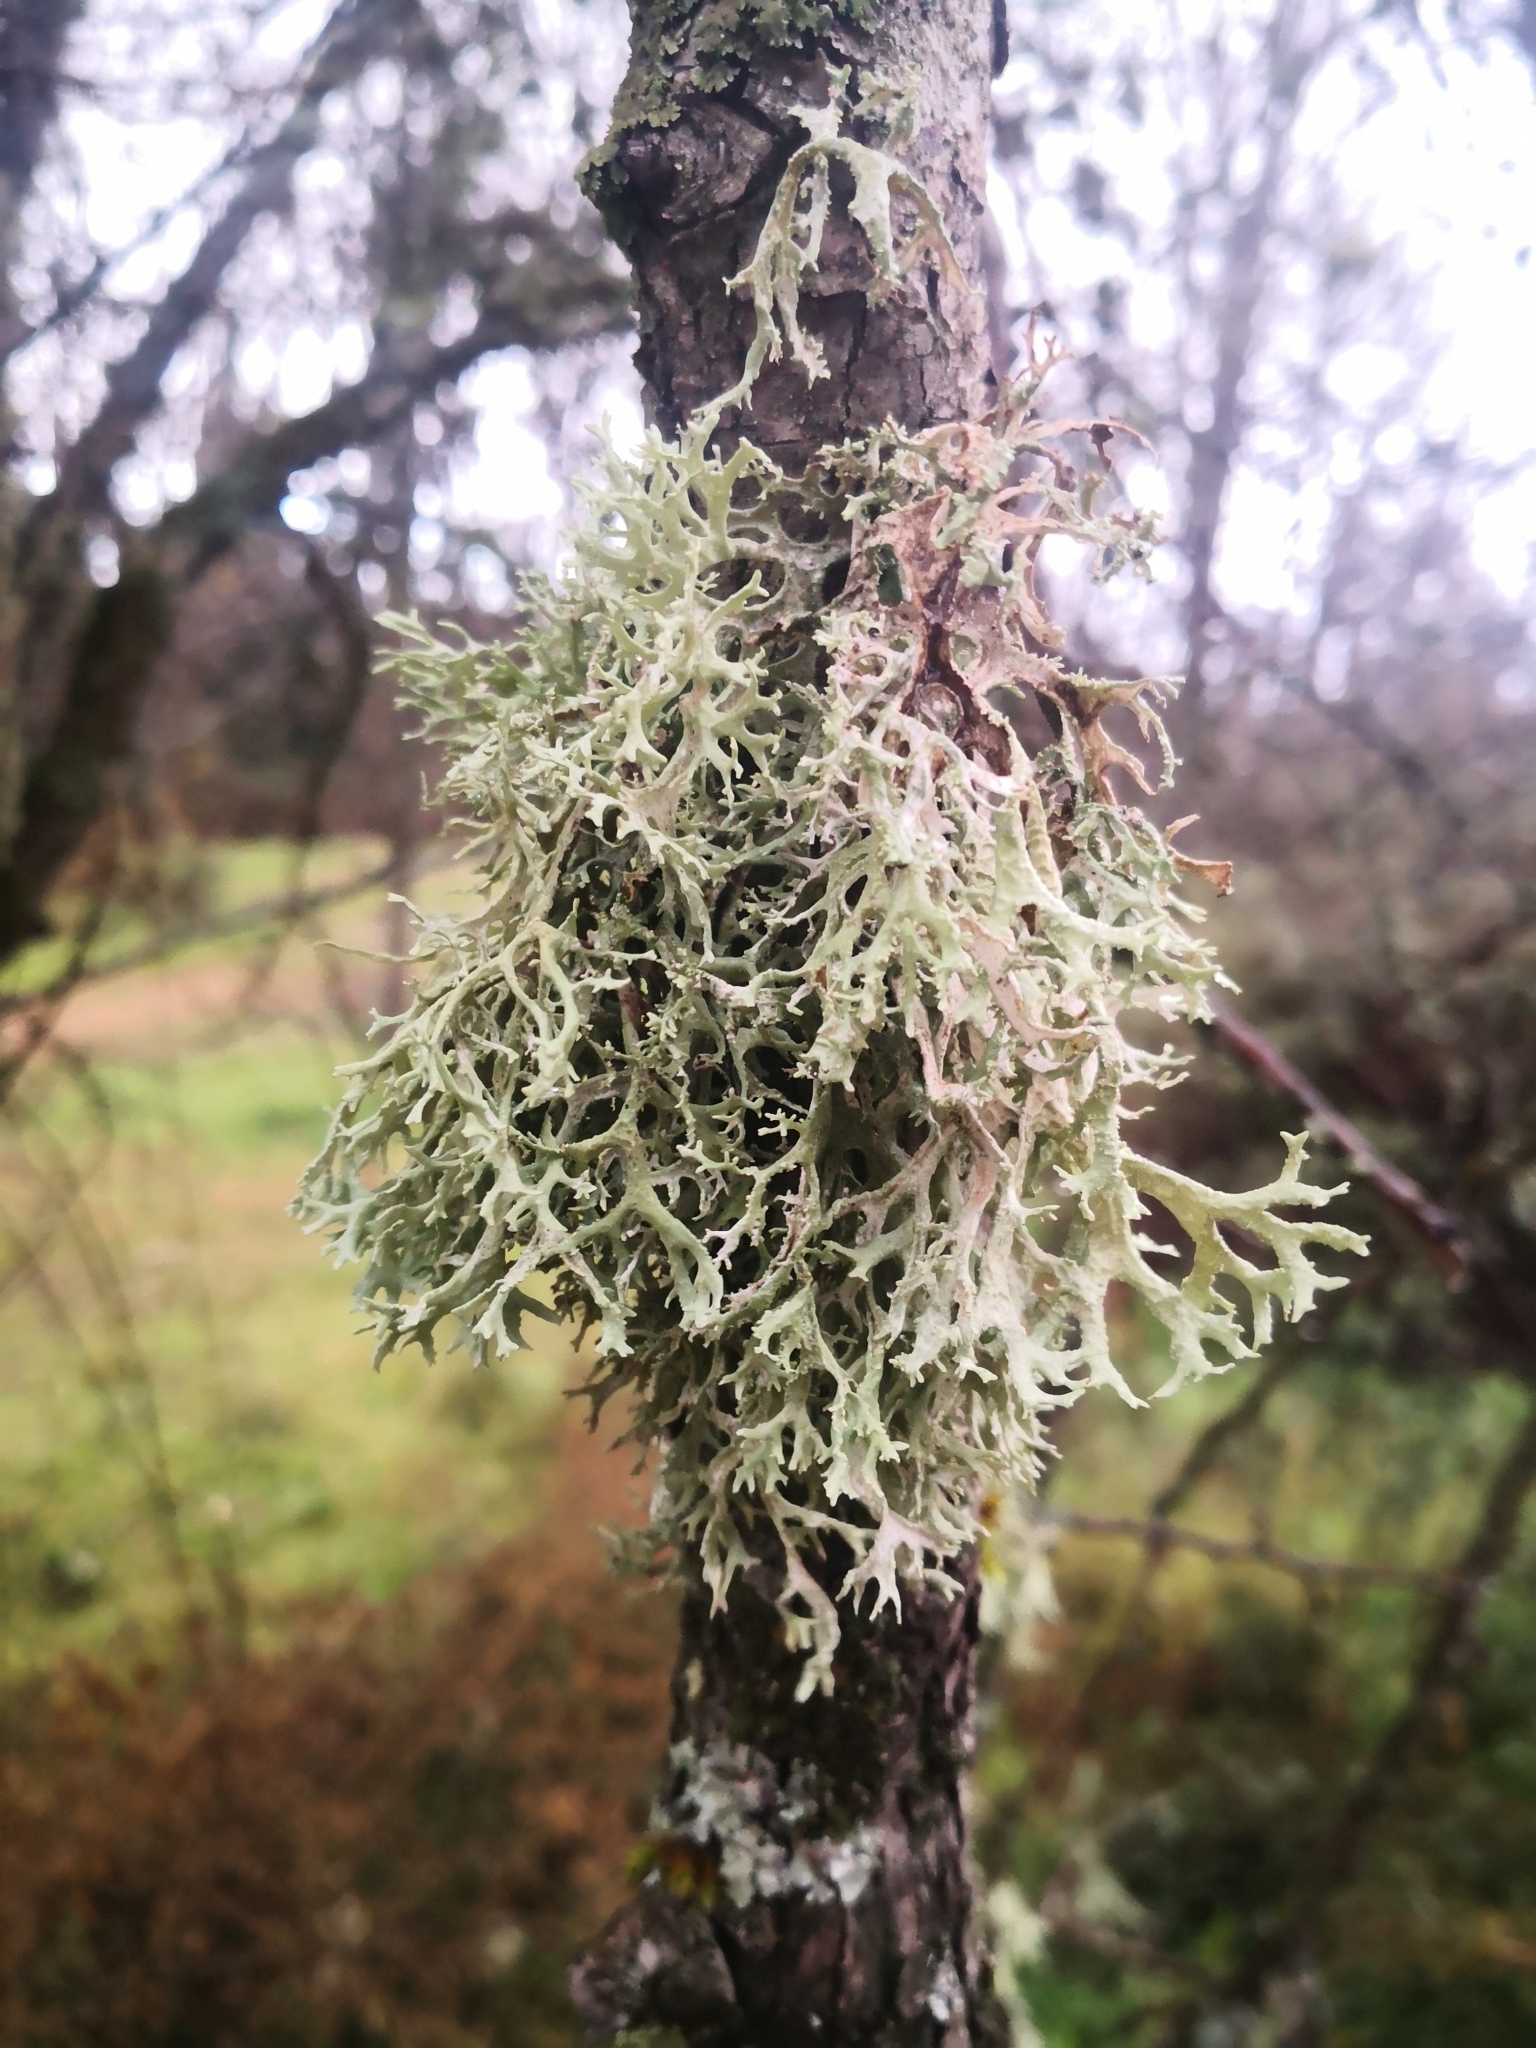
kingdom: Fungi
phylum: Ascomycota
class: Lecanoromycetes
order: Lecanorales
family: Parmeliaceae
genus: Evernia
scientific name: Evernia prunastri
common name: Oak moss
